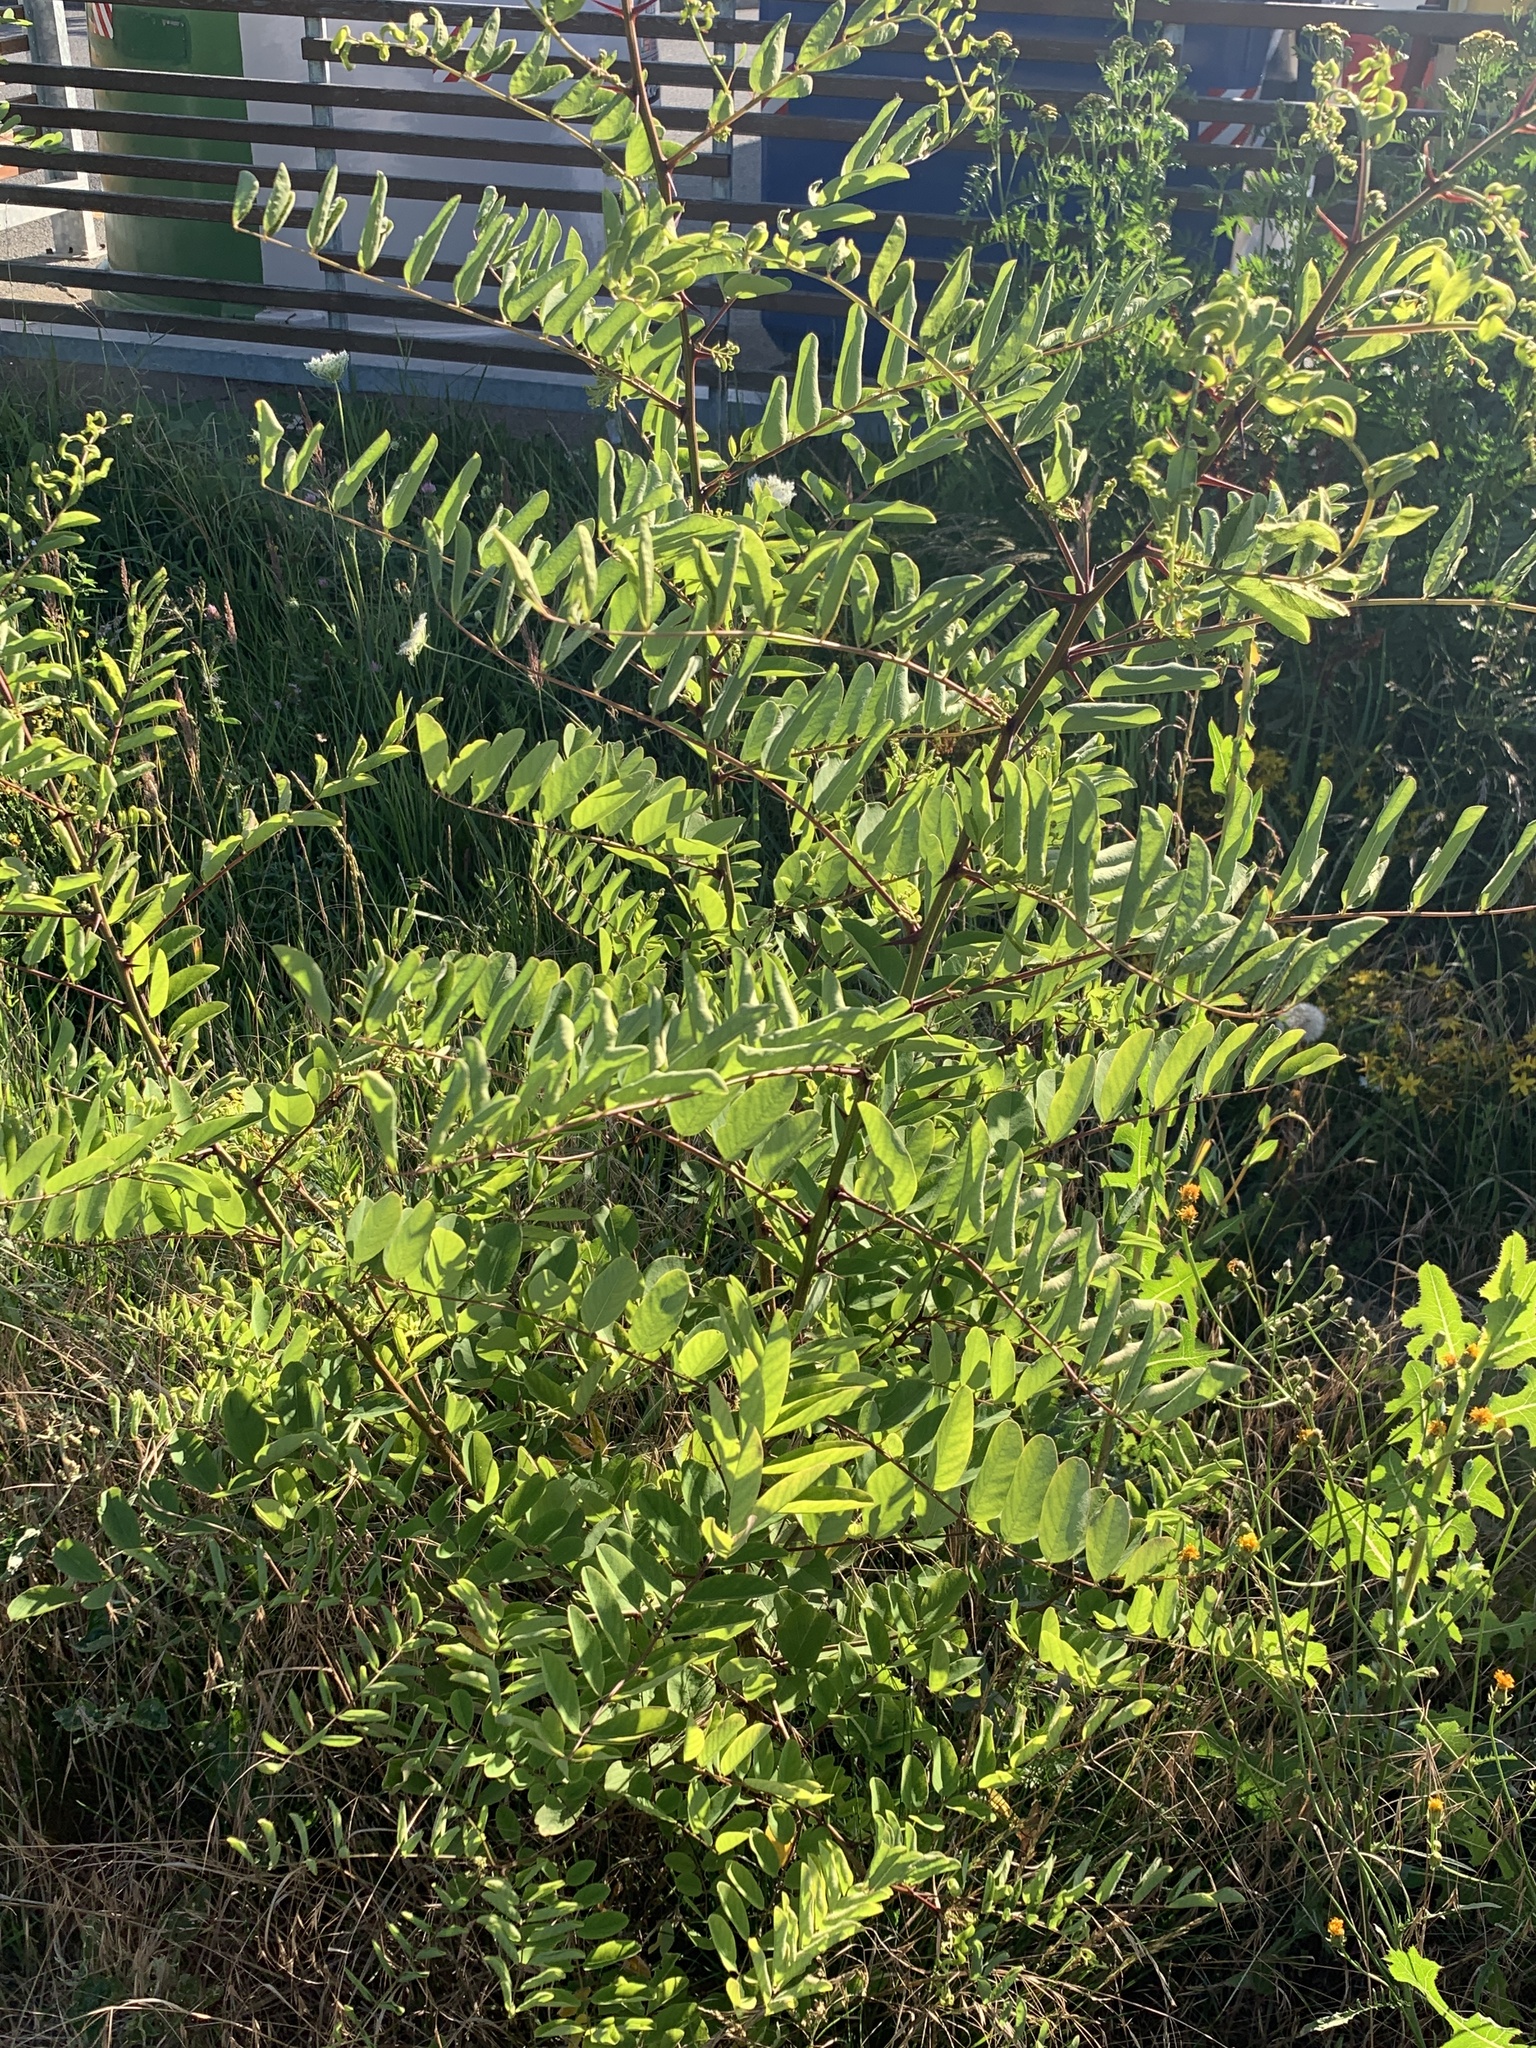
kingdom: Plantae
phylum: Tracheophyta
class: Magnoliopsida
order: Fabales
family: Fabaceae
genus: Robinia
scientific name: Robinia pseudoacacia
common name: Black locust
